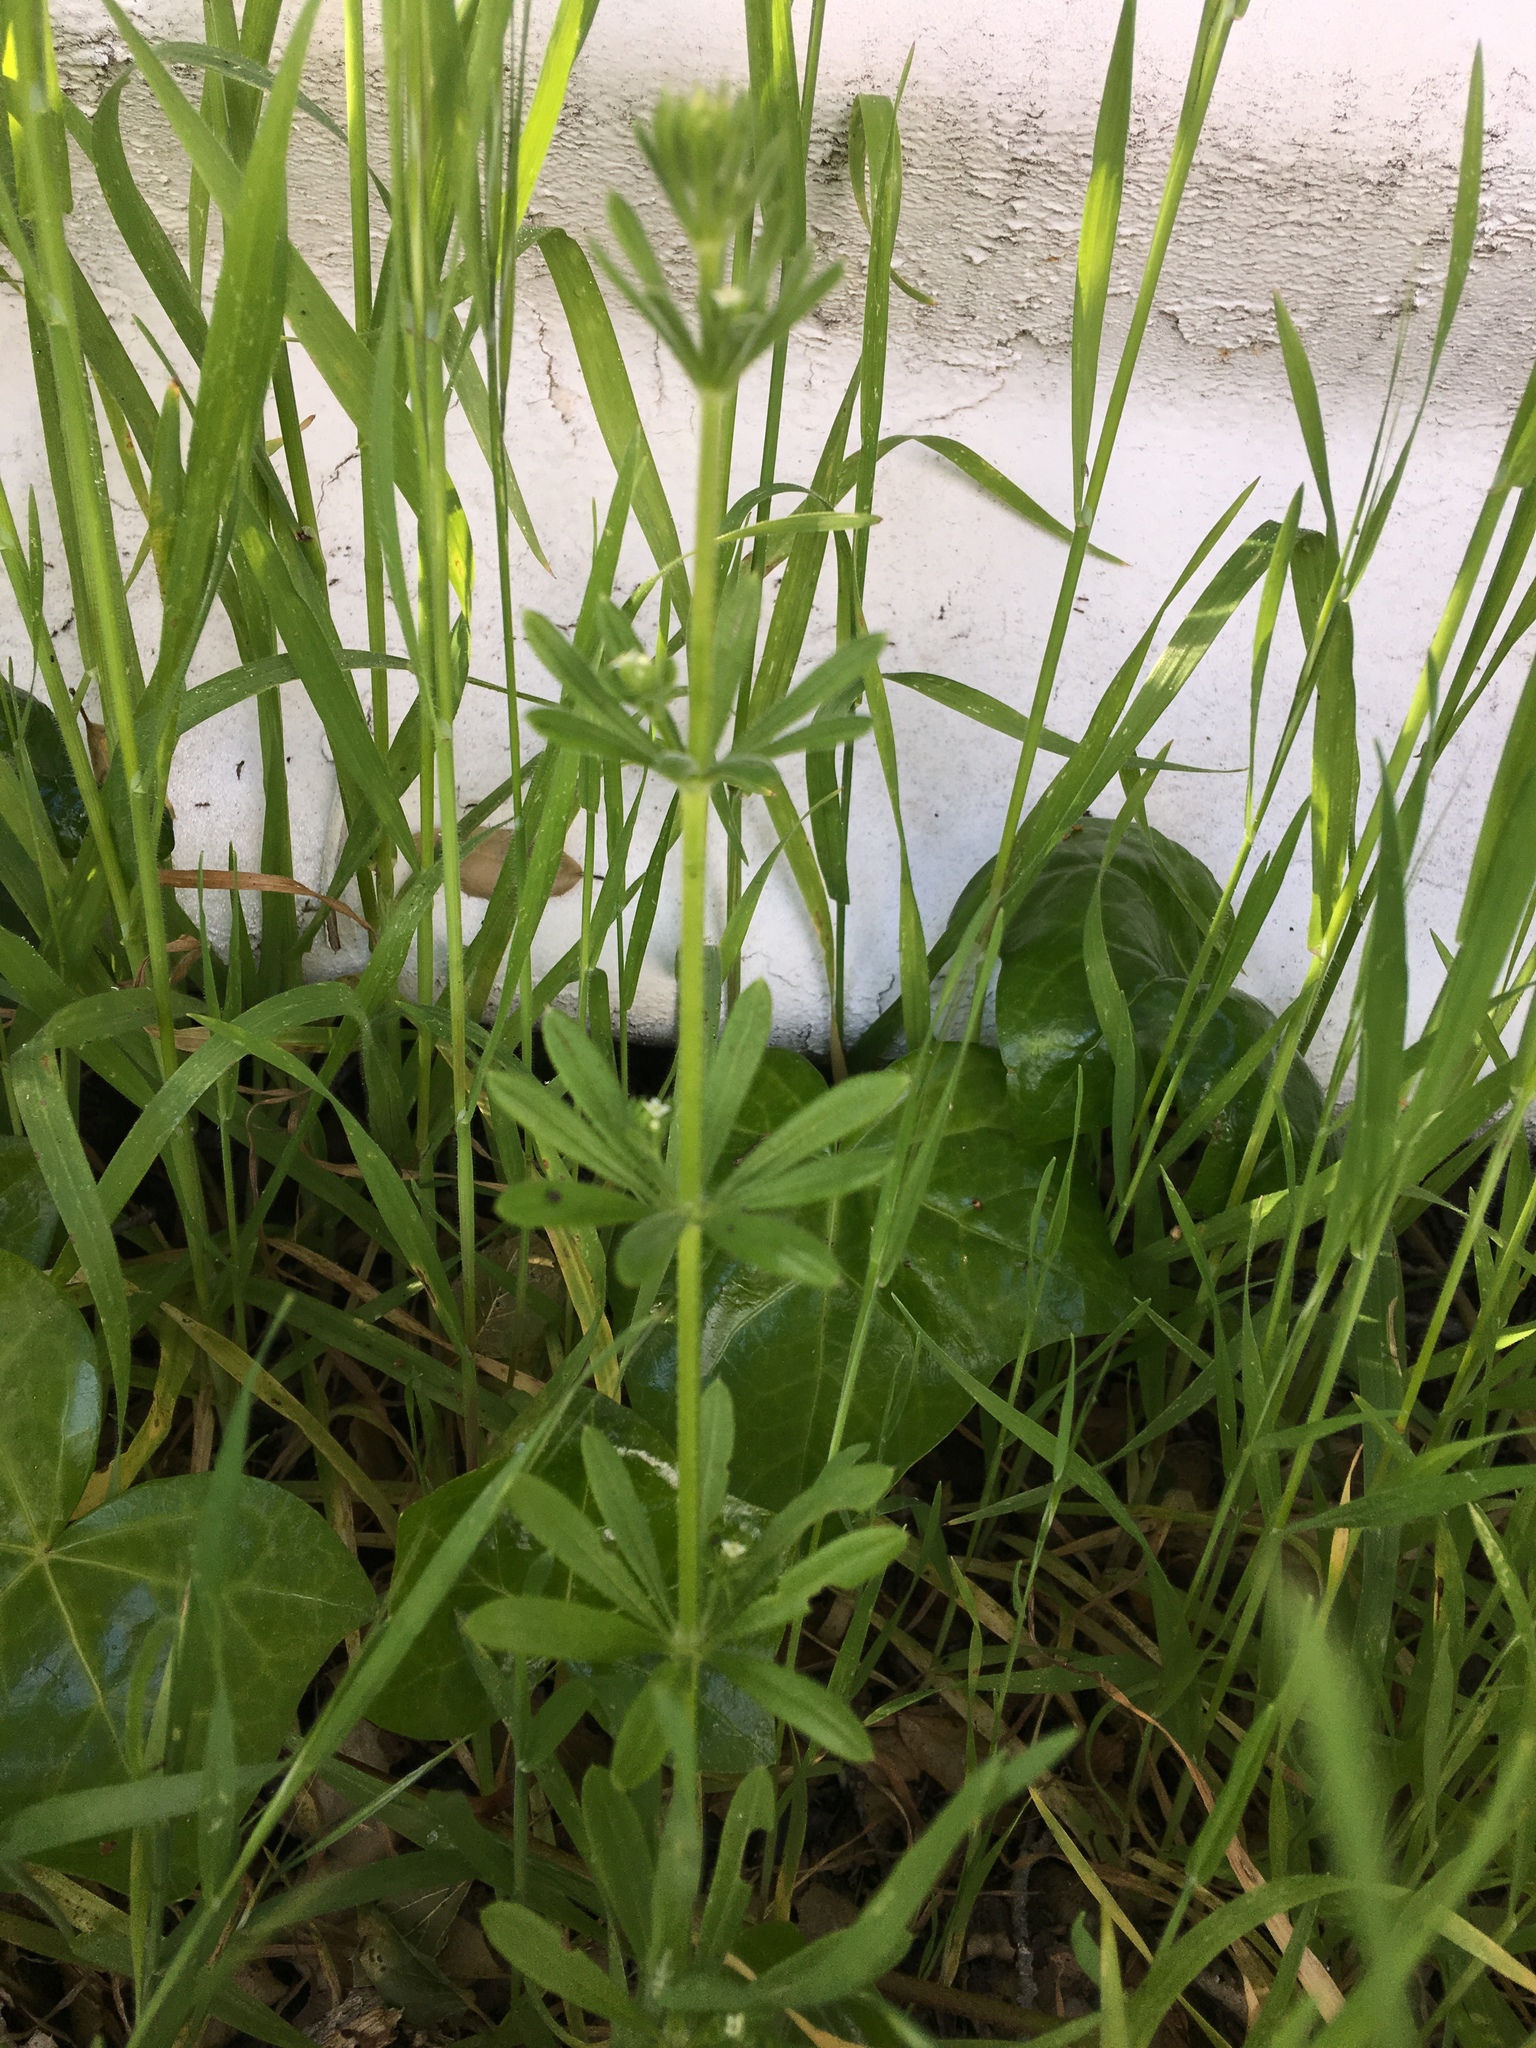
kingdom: Plantae
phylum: Tracheophyta
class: Magnoliopsida
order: Gentianales
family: Rubiaceae
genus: Galium
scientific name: Galium aparine
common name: Cleavers
